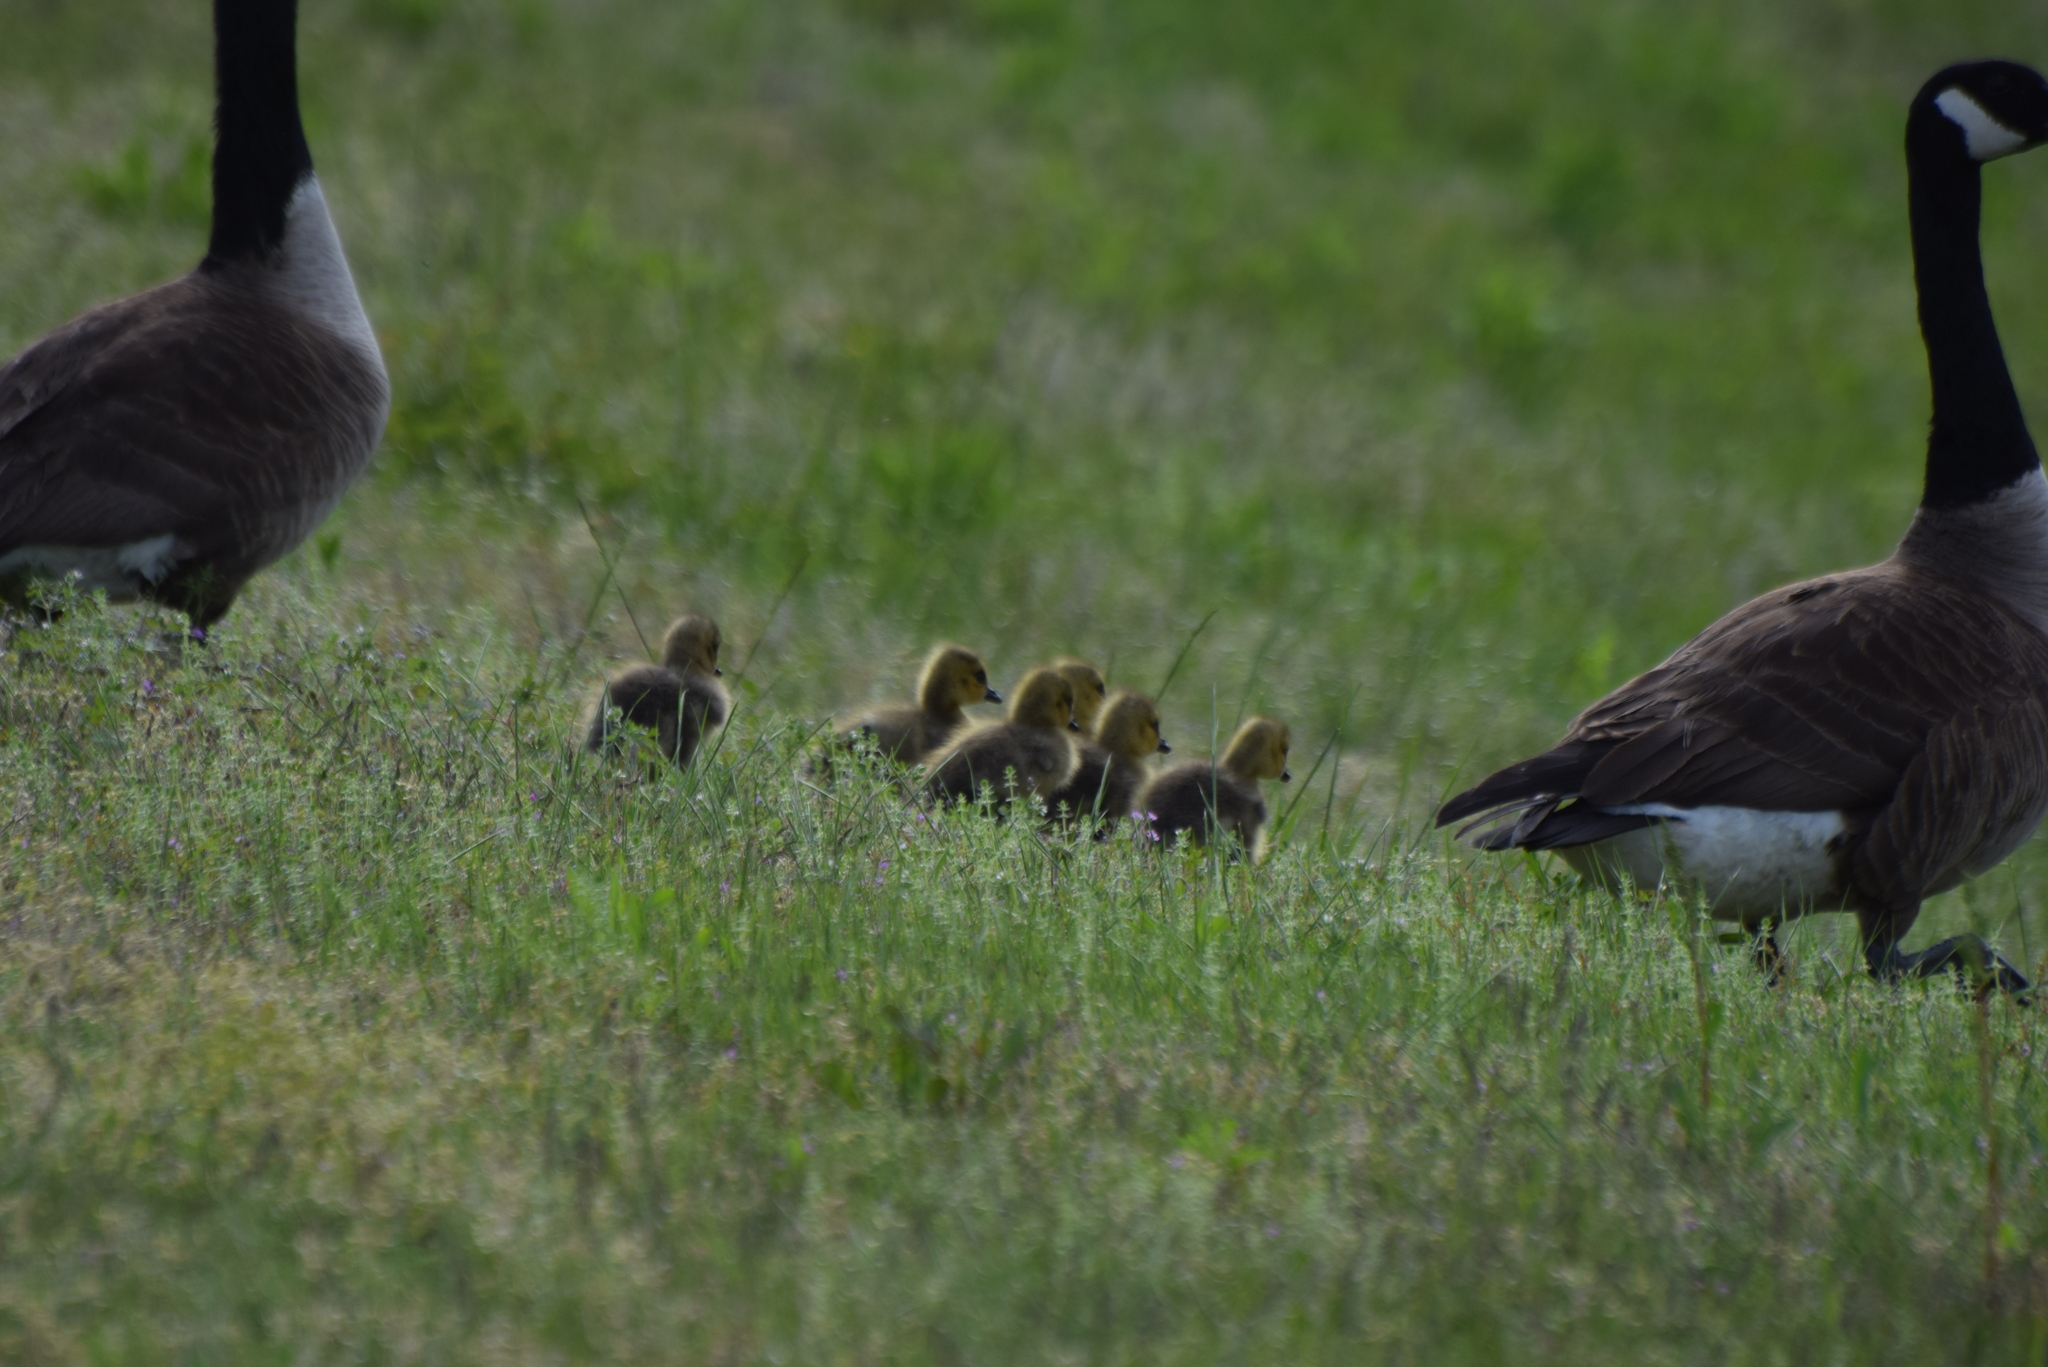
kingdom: Animalia
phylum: Chordata
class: Aves
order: Anseriformes
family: Anatidae
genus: Branta
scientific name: Branta canadensis
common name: Canada goose
